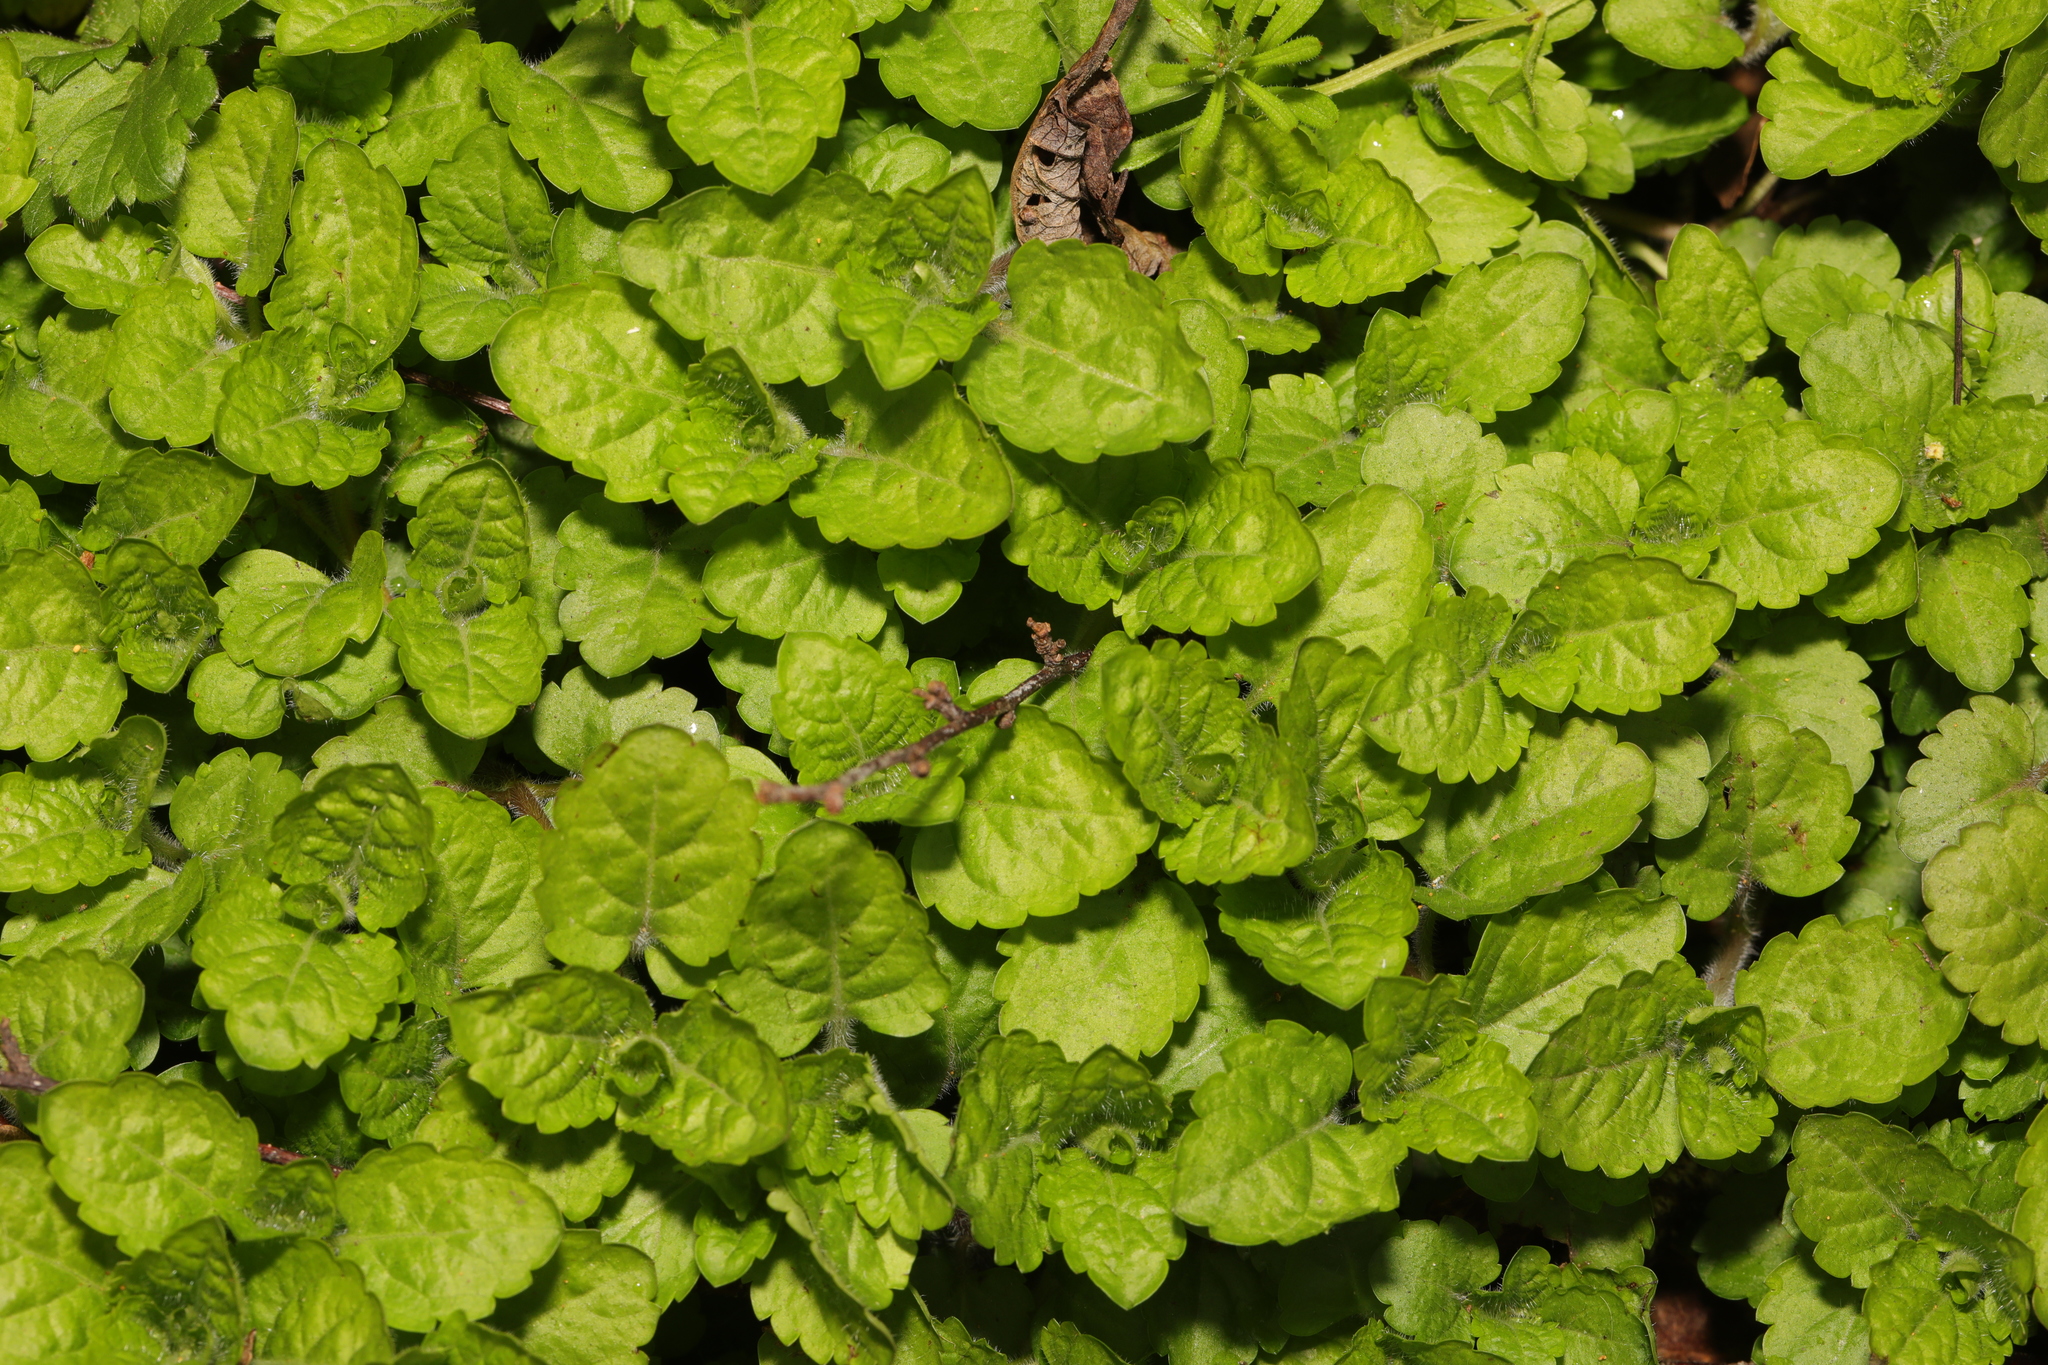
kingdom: Plantae
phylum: Tracheophyta
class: Magnoliopsida
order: Lamiales
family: Plantaginaceae
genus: Veronica
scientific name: Veronica montana
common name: Wood speedwell
